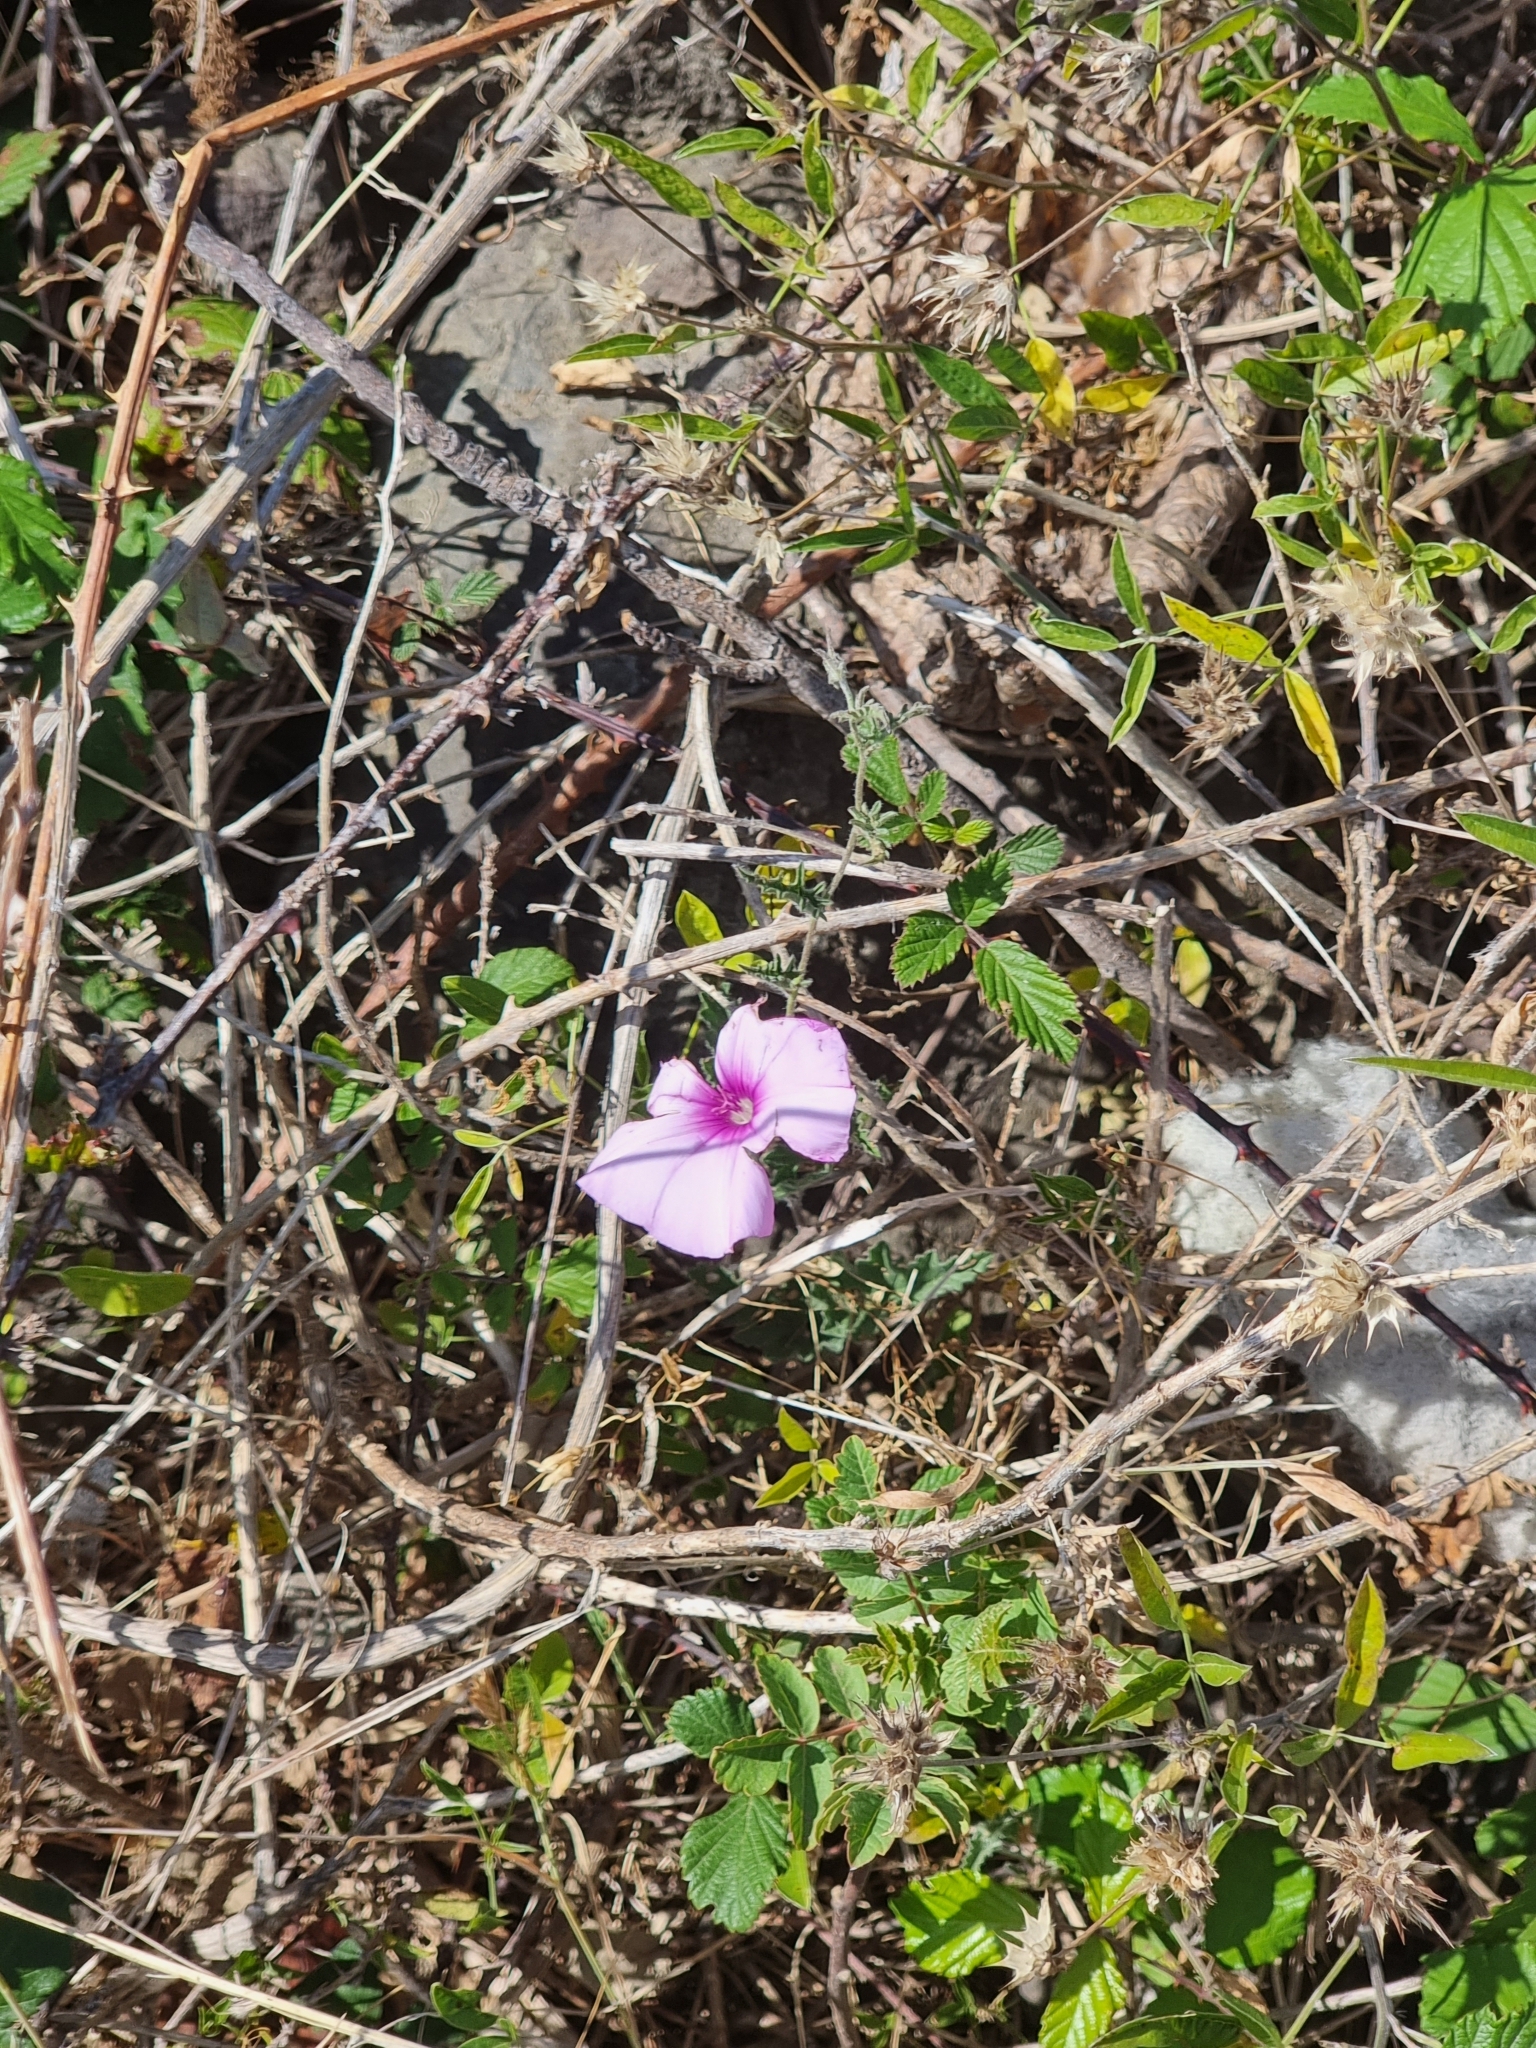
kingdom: Plantae
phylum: Tracheophyta
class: Magnoliopsida
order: Solanales
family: Convolvulaceae
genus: Convolvulus
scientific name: Convolvulus althaeoides
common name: Mallow bindweed
